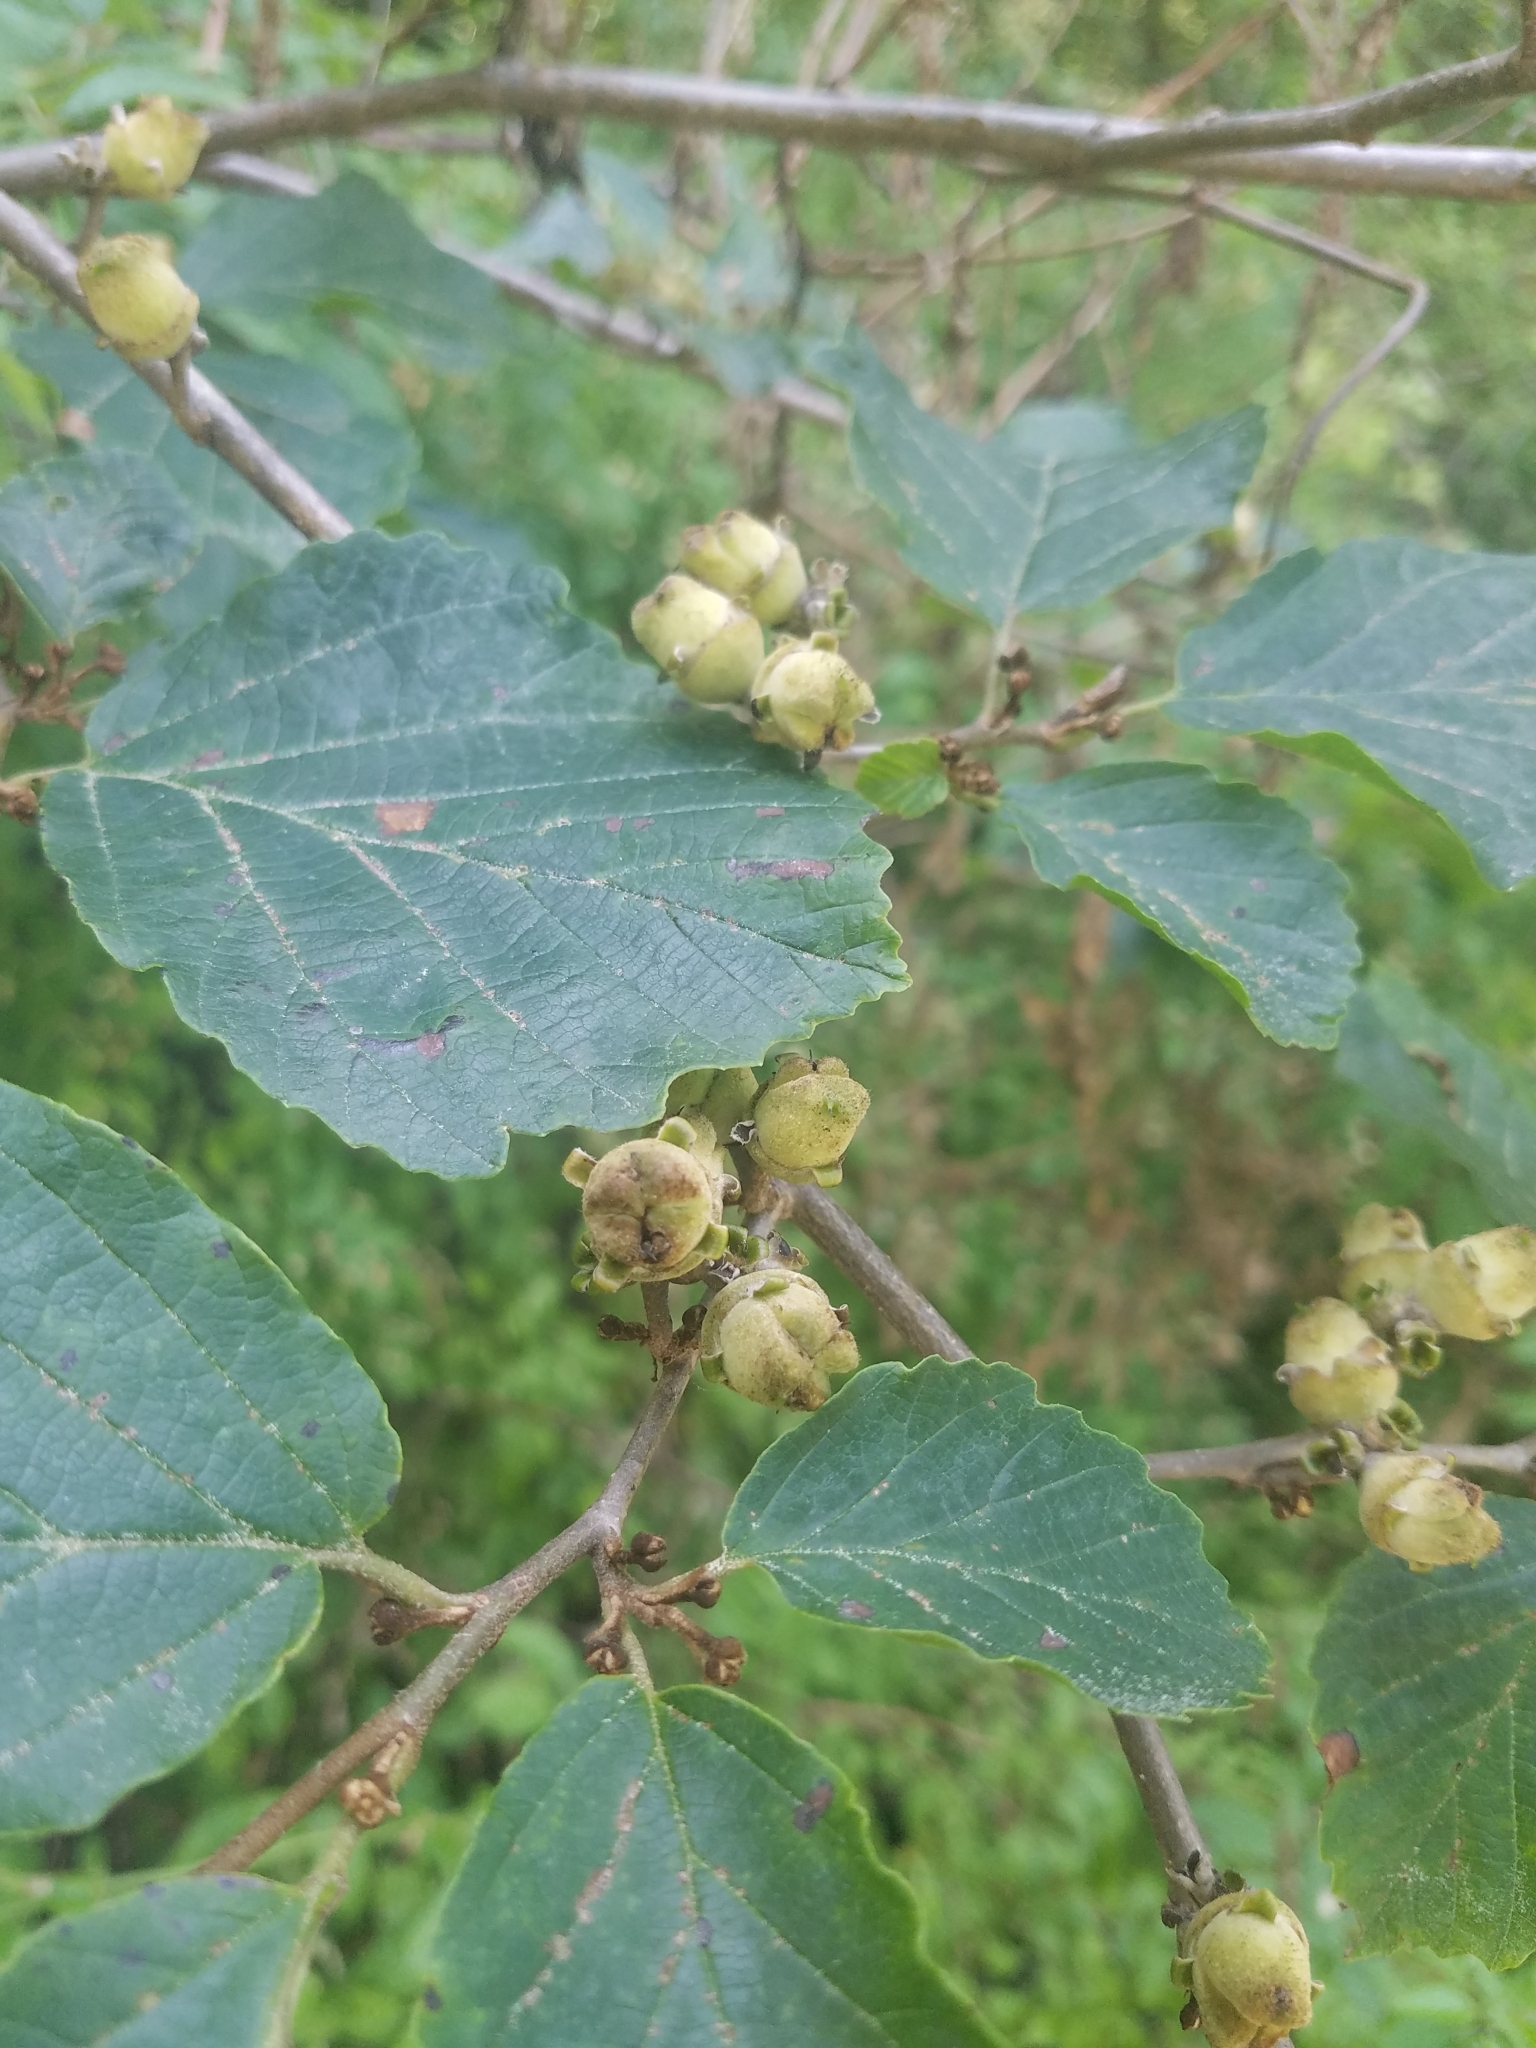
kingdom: Plantae
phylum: Tracheophyta
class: Magnoliopsida
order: Saxifragales
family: Hamamelidaceae
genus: Hamamelis
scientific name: Hamamelis virginiana
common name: Witch-hazel
